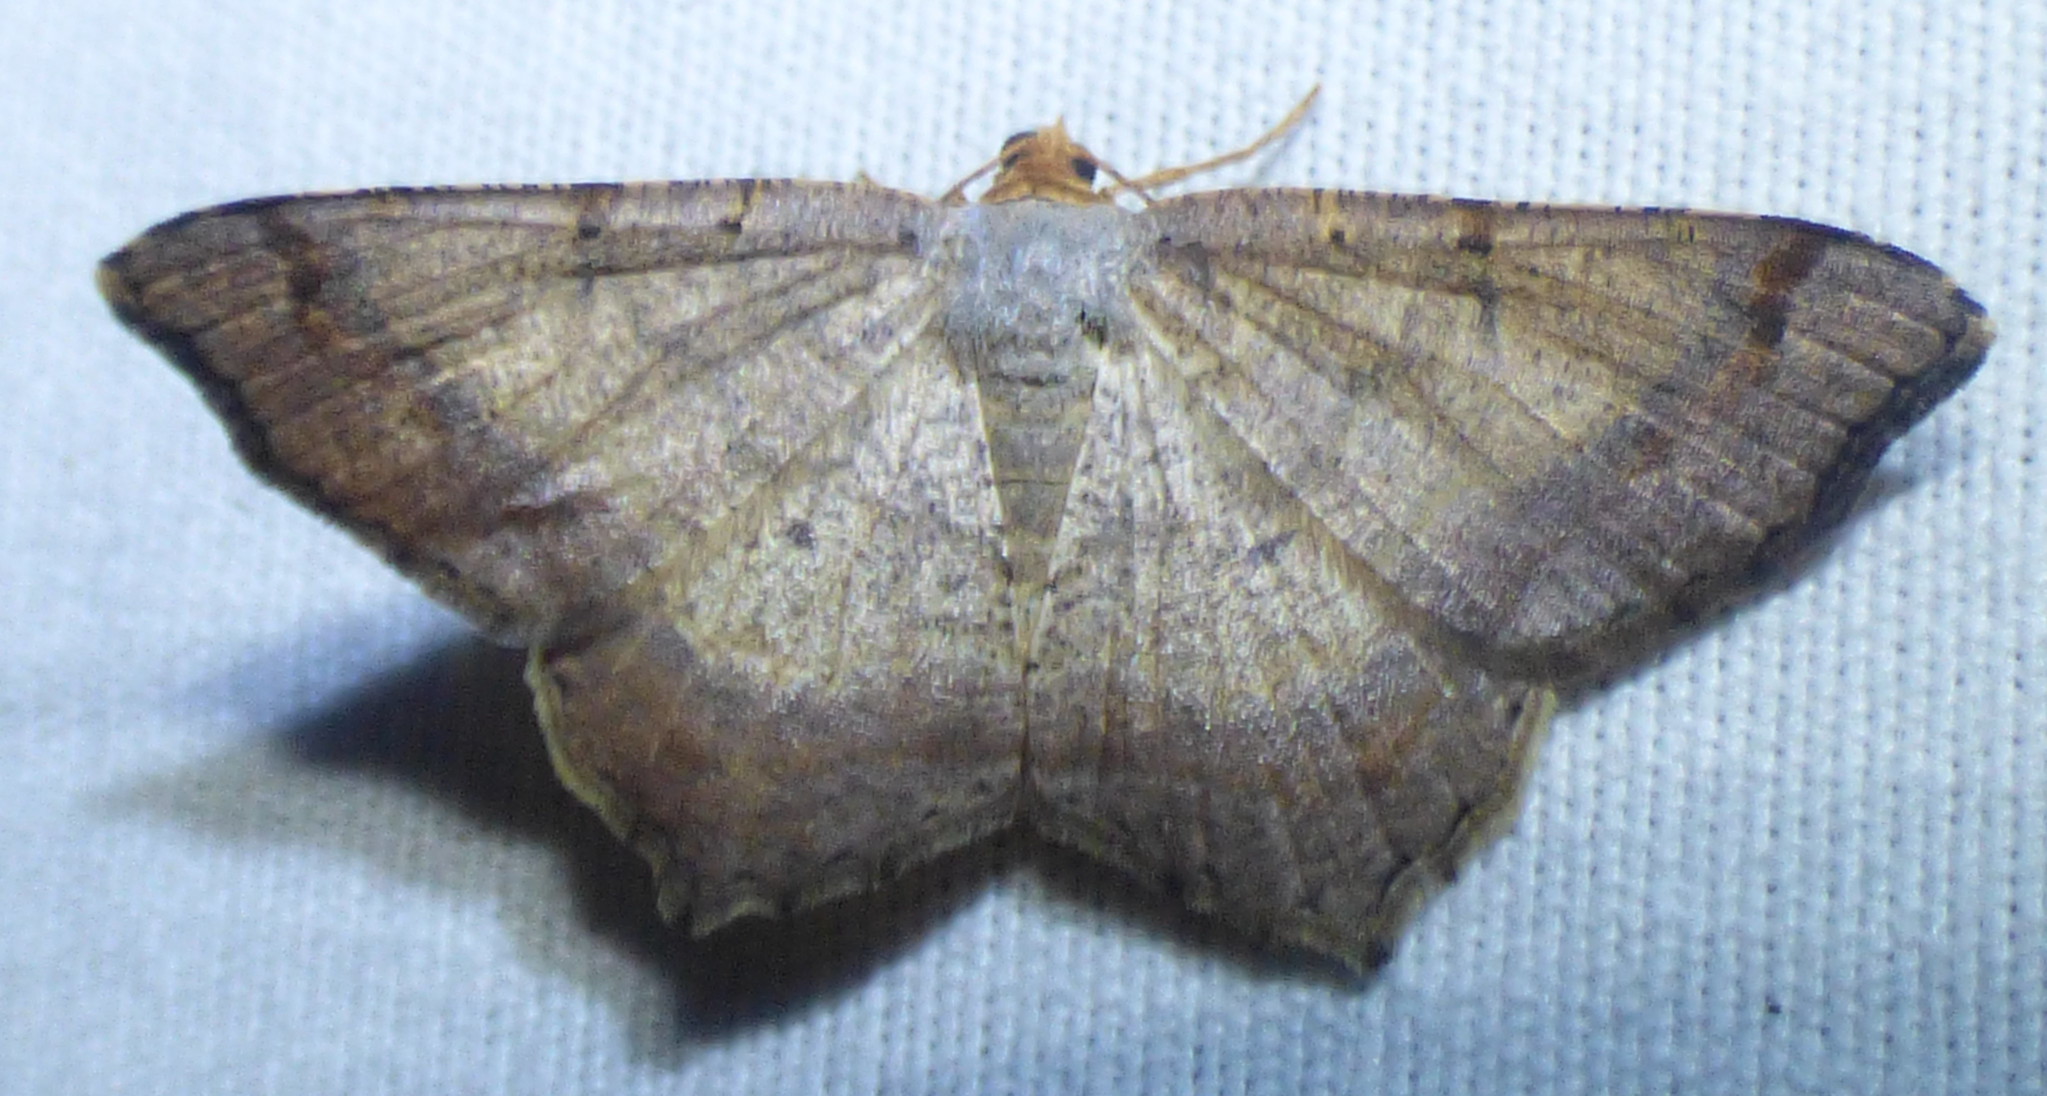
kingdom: Animalia
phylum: Arthropoda
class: Insecta
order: Lepidoptera
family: Geometridae
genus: Macaria
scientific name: Macaria bicolorata
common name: Dingy angle
